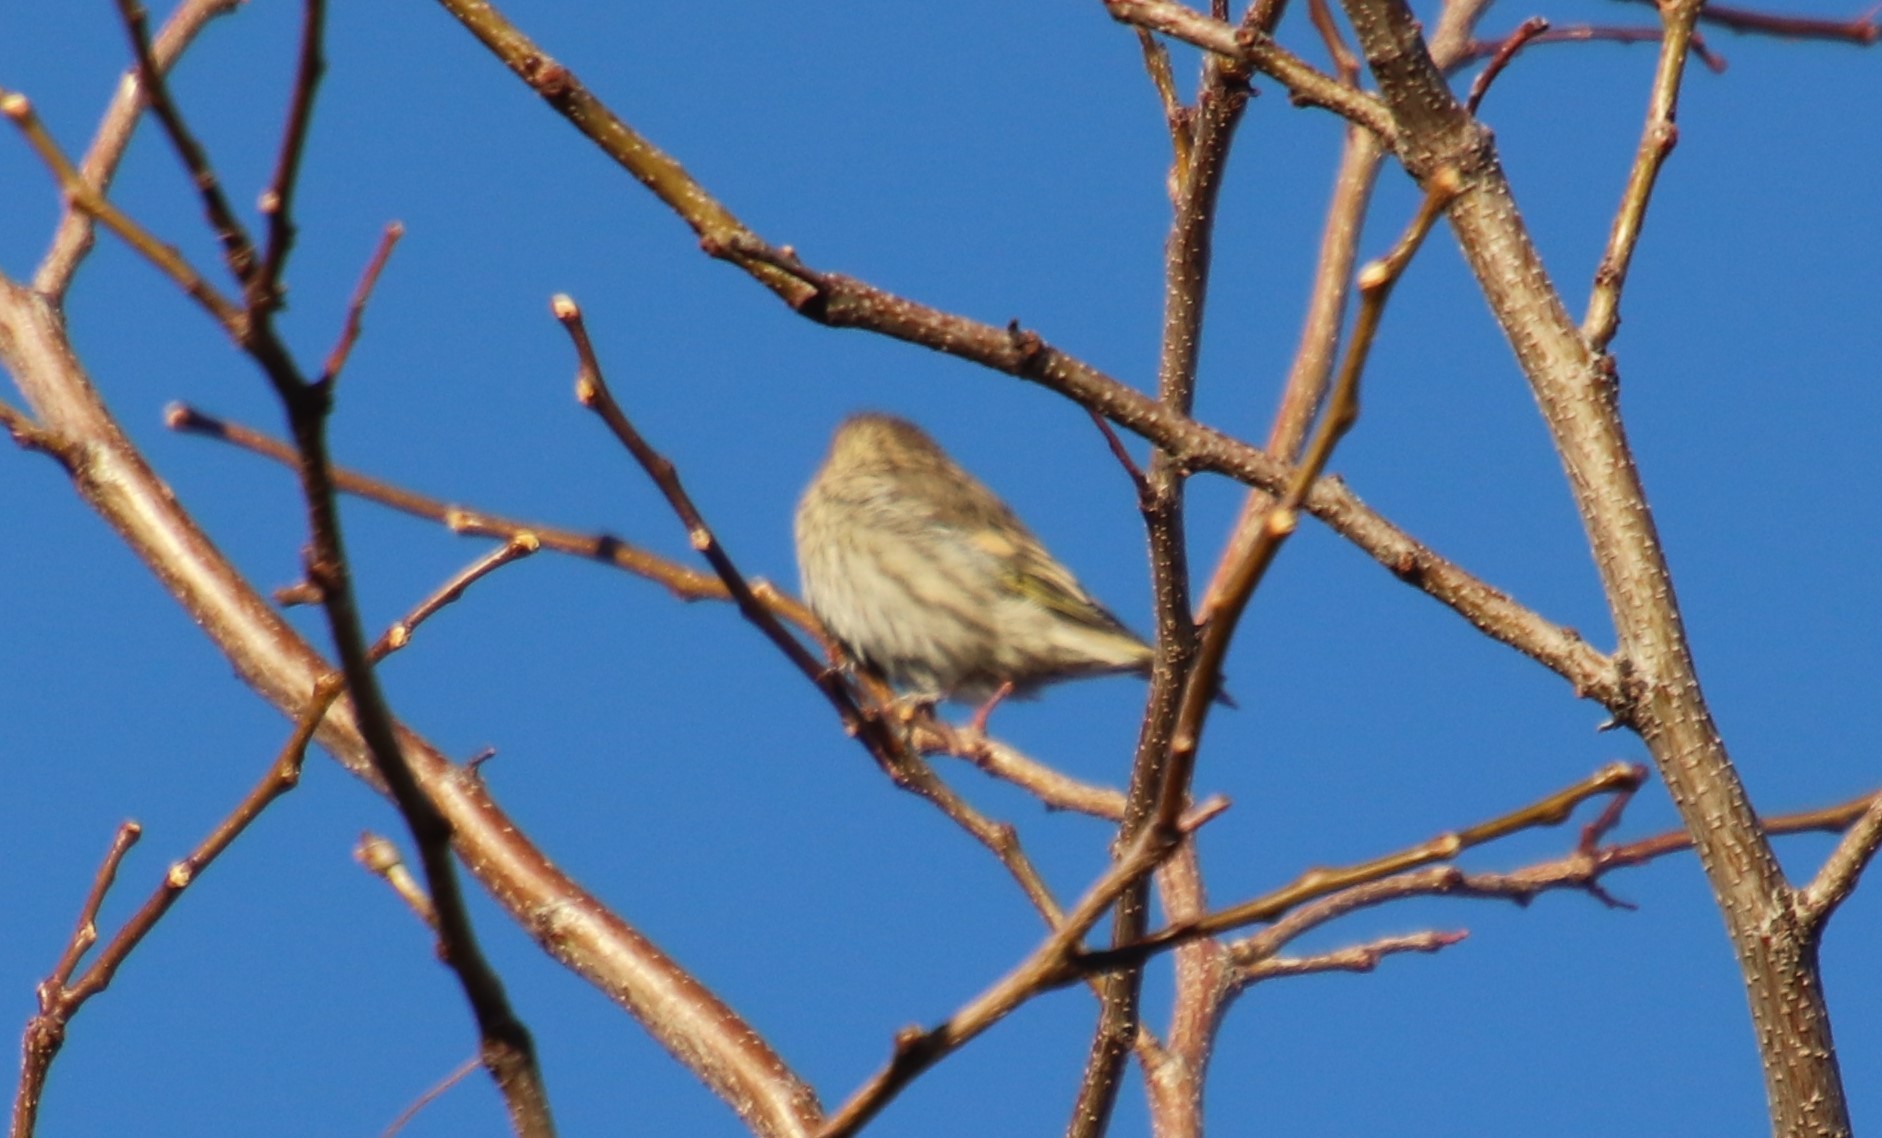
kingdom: Animalia
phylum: Chordata
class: Aves
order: Passeriformes
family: Fringillidae
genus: Spinus
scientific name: Spinus pinus
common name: Pine siskin
